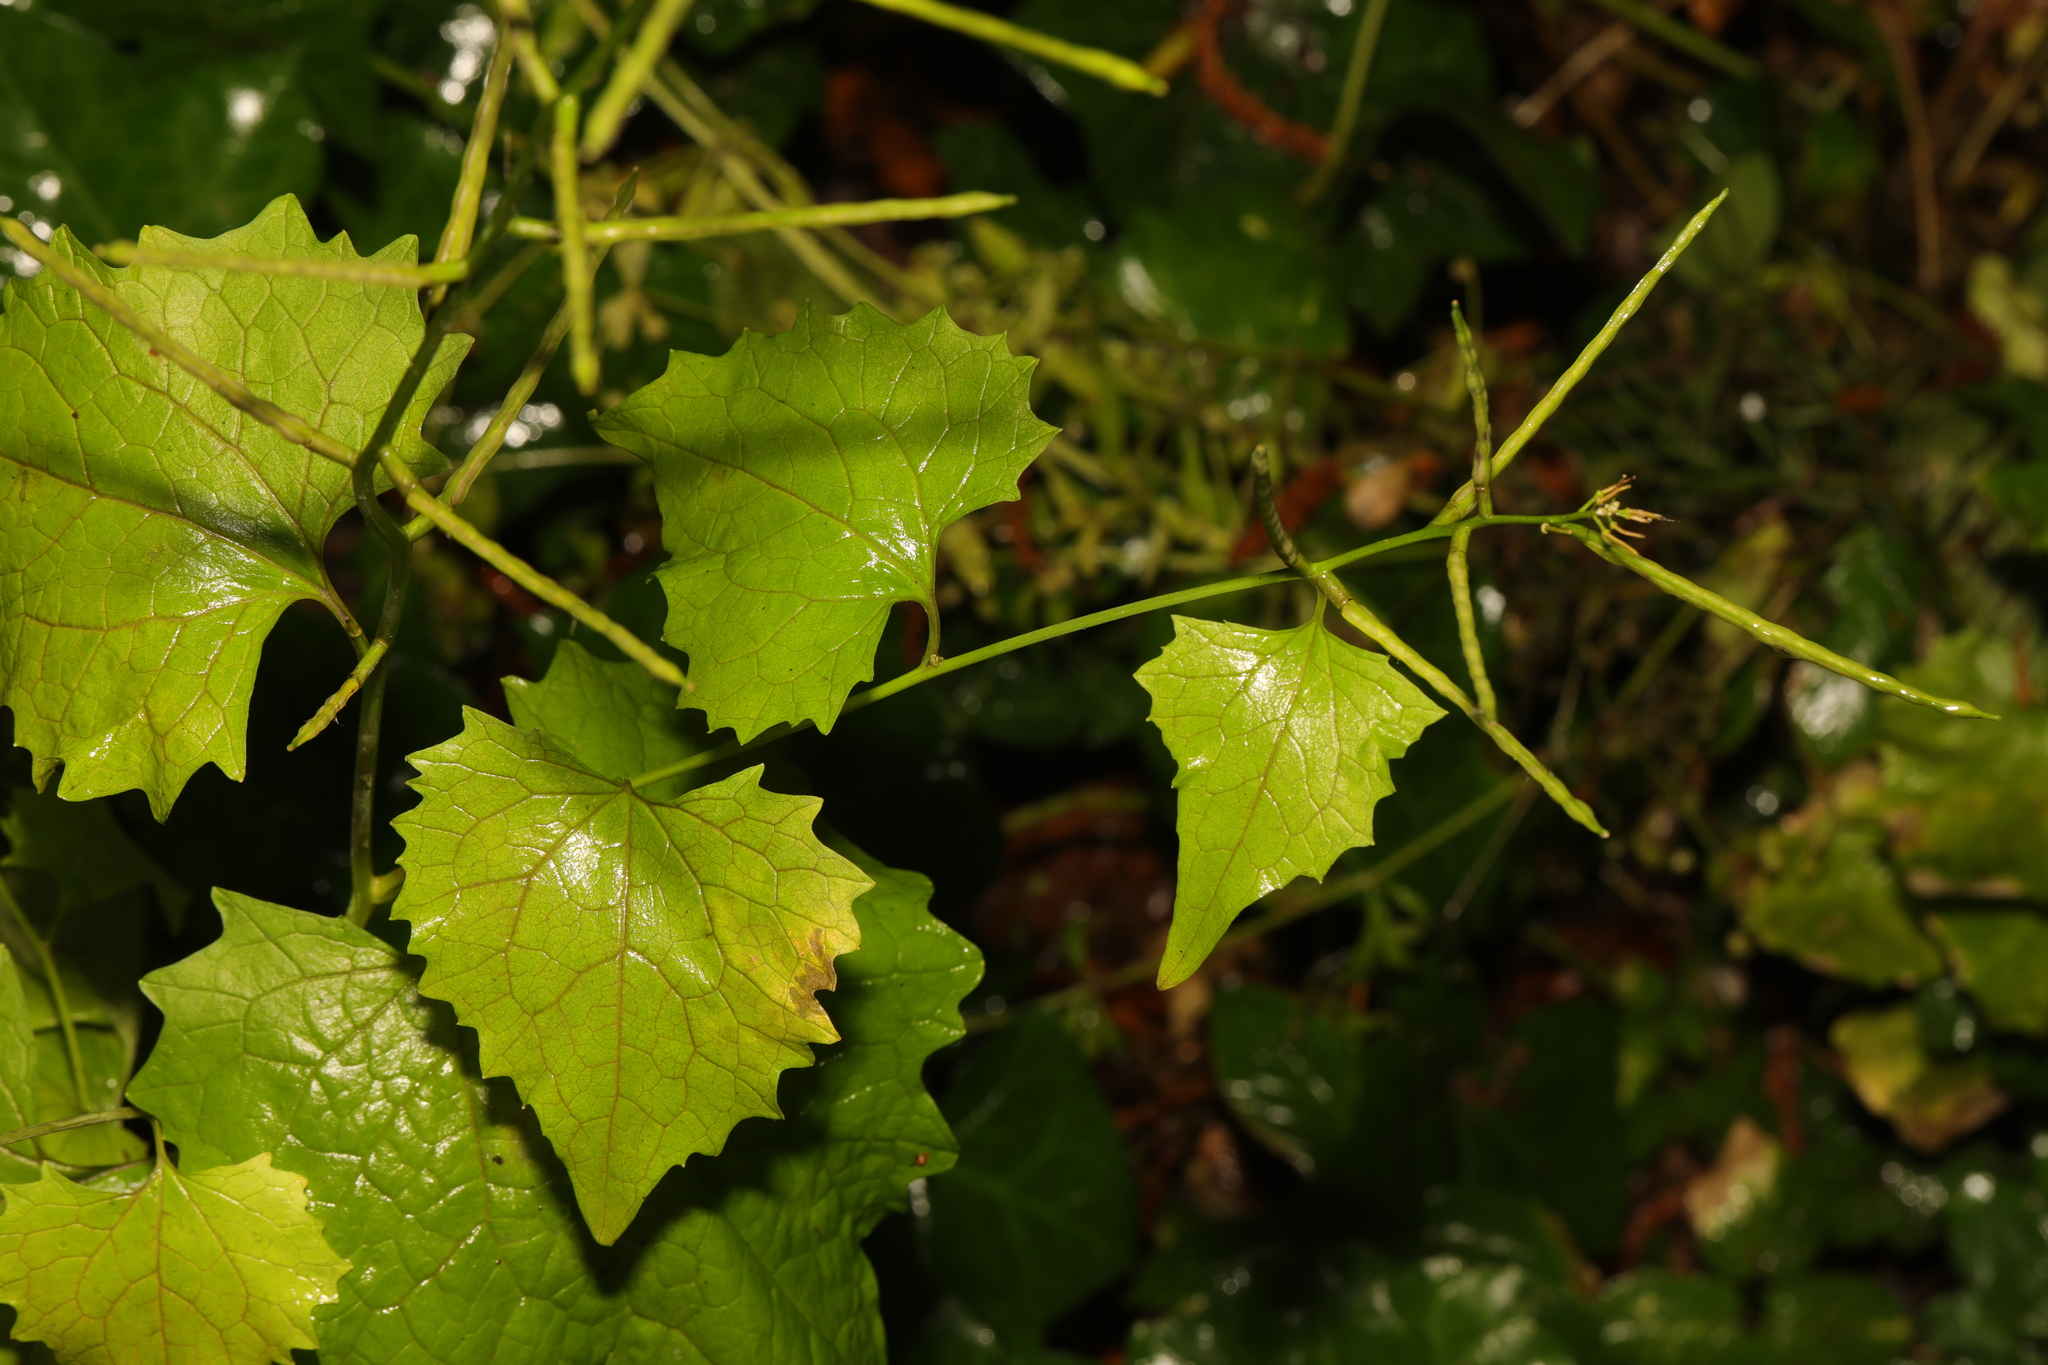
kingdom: Plantae
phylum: Tracheophyta
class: Magnoliopsida
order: Brassicales
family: Brassicaceae
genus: Alliaria
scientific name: Alliaria petiolata
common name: Garlic mustard
